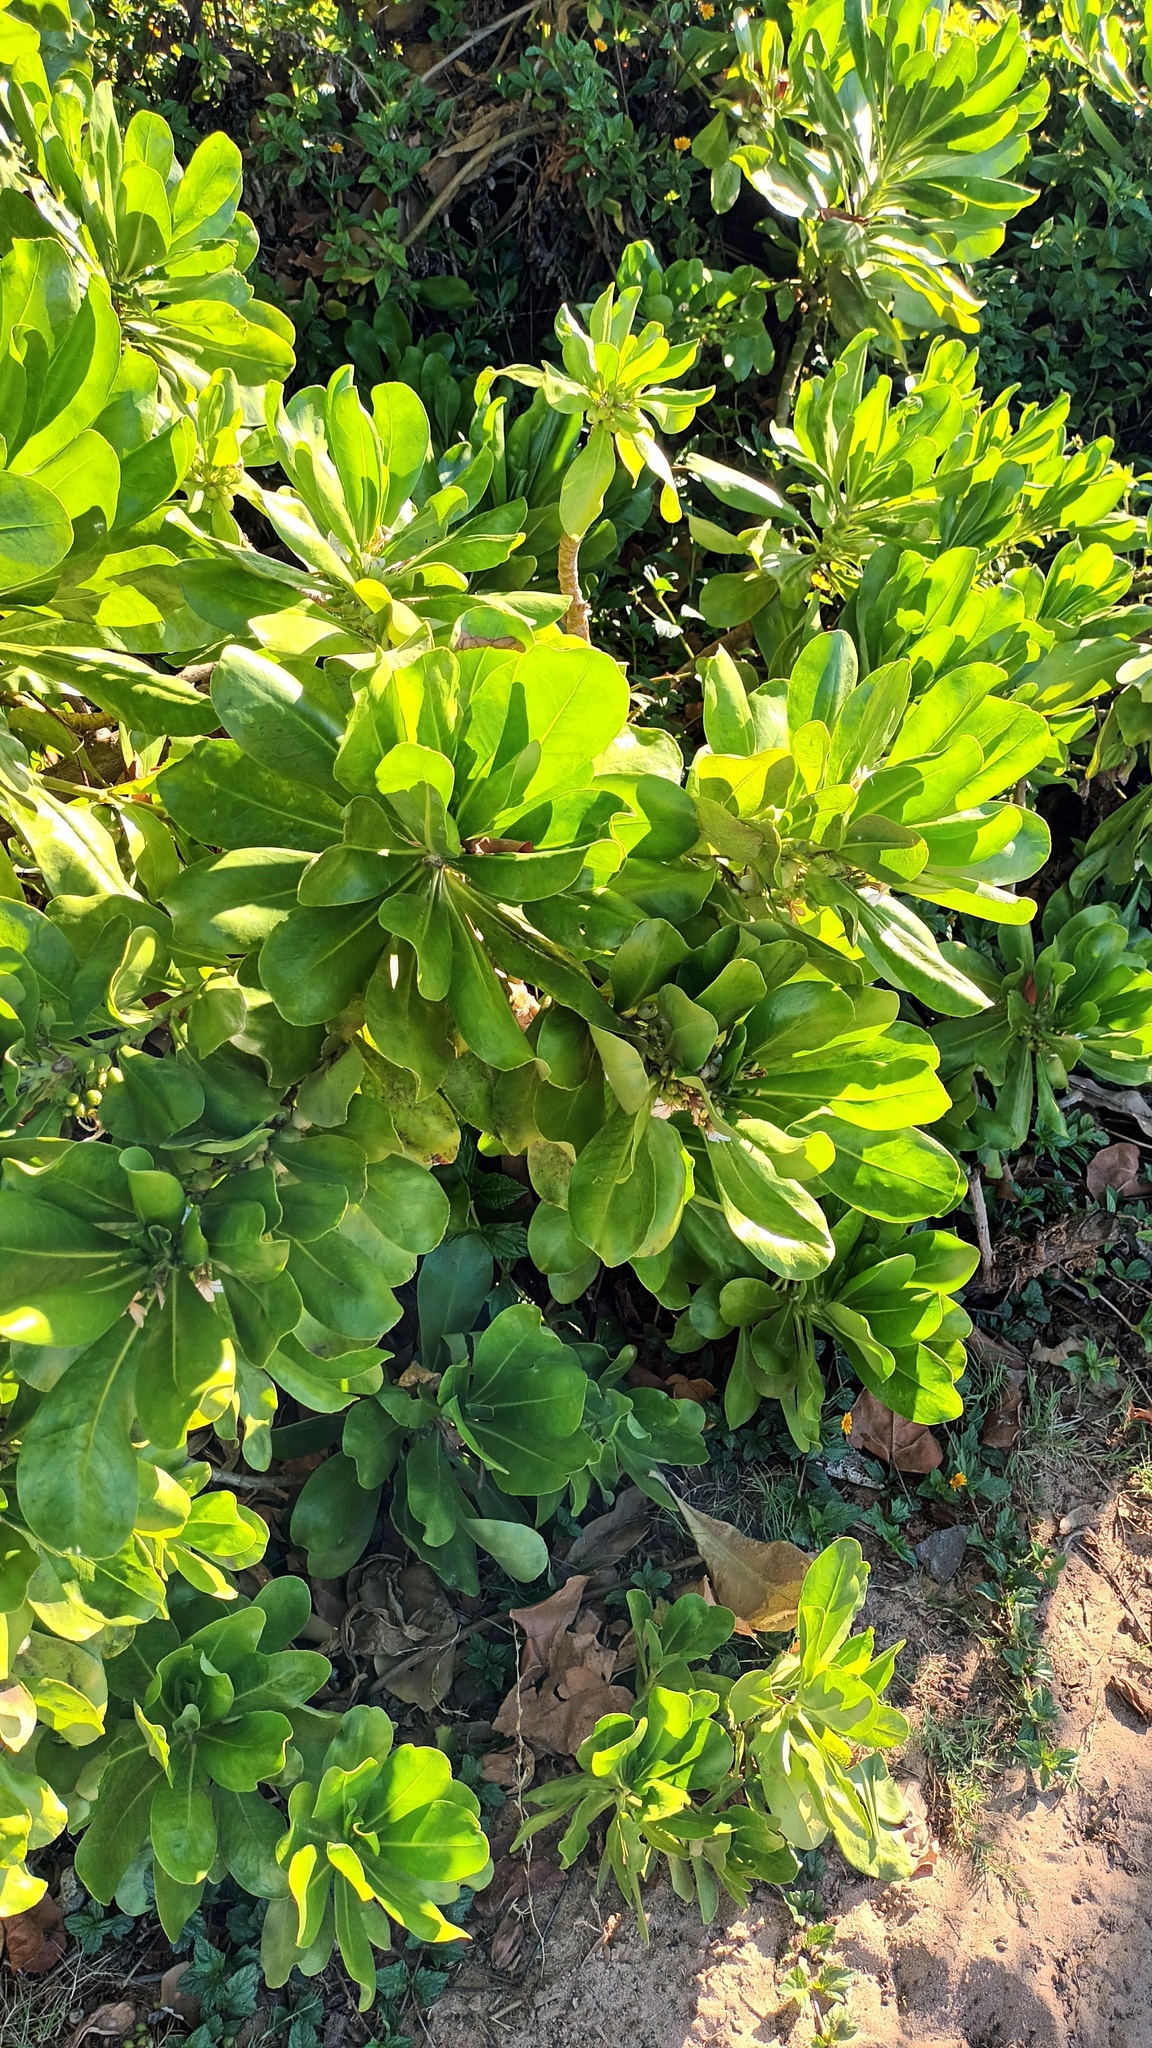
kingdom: Plantae
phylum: Tracheophyta
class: Magnoliopsida
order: Asterales
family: Goodeniaceae
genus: Scaevola
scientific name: Scaevola taccada
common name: Sea lettucetree
